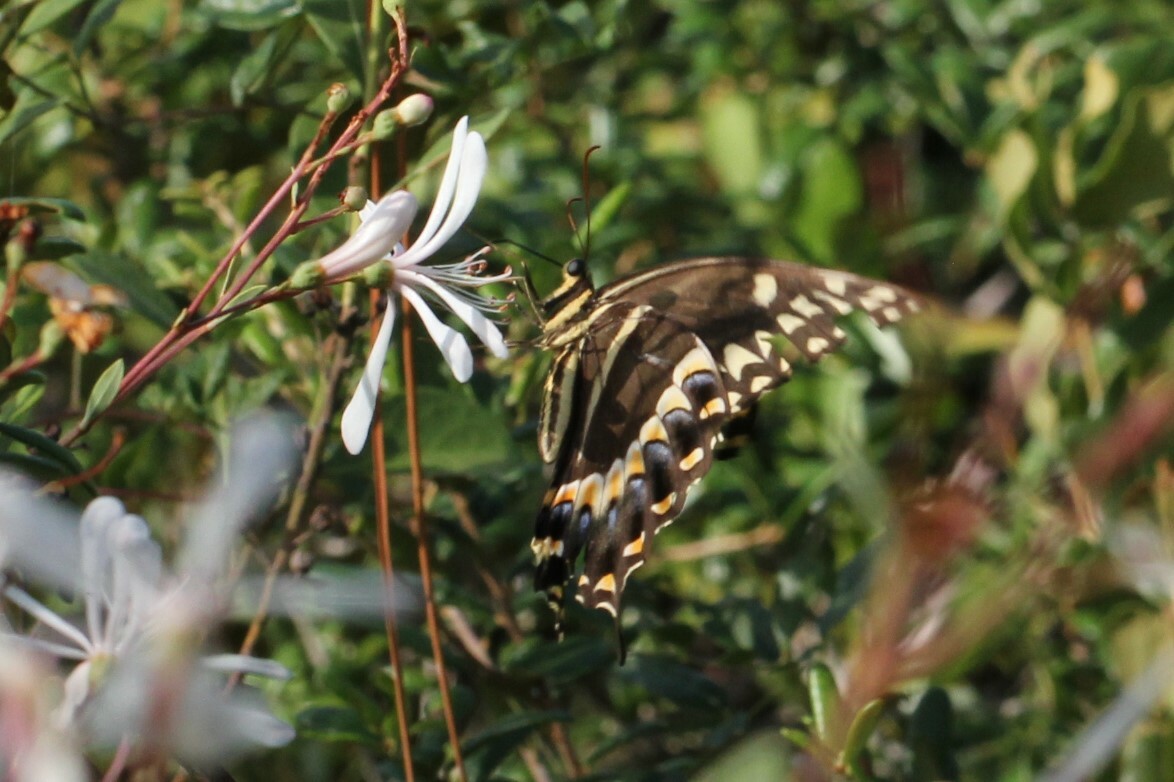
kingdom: Animalia
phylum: Arthropoda
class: Insecta
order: Lepidoptera
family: Papilionidae
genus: Papilio
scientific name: Papilio palamedes
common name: Palamedes swallowtail
